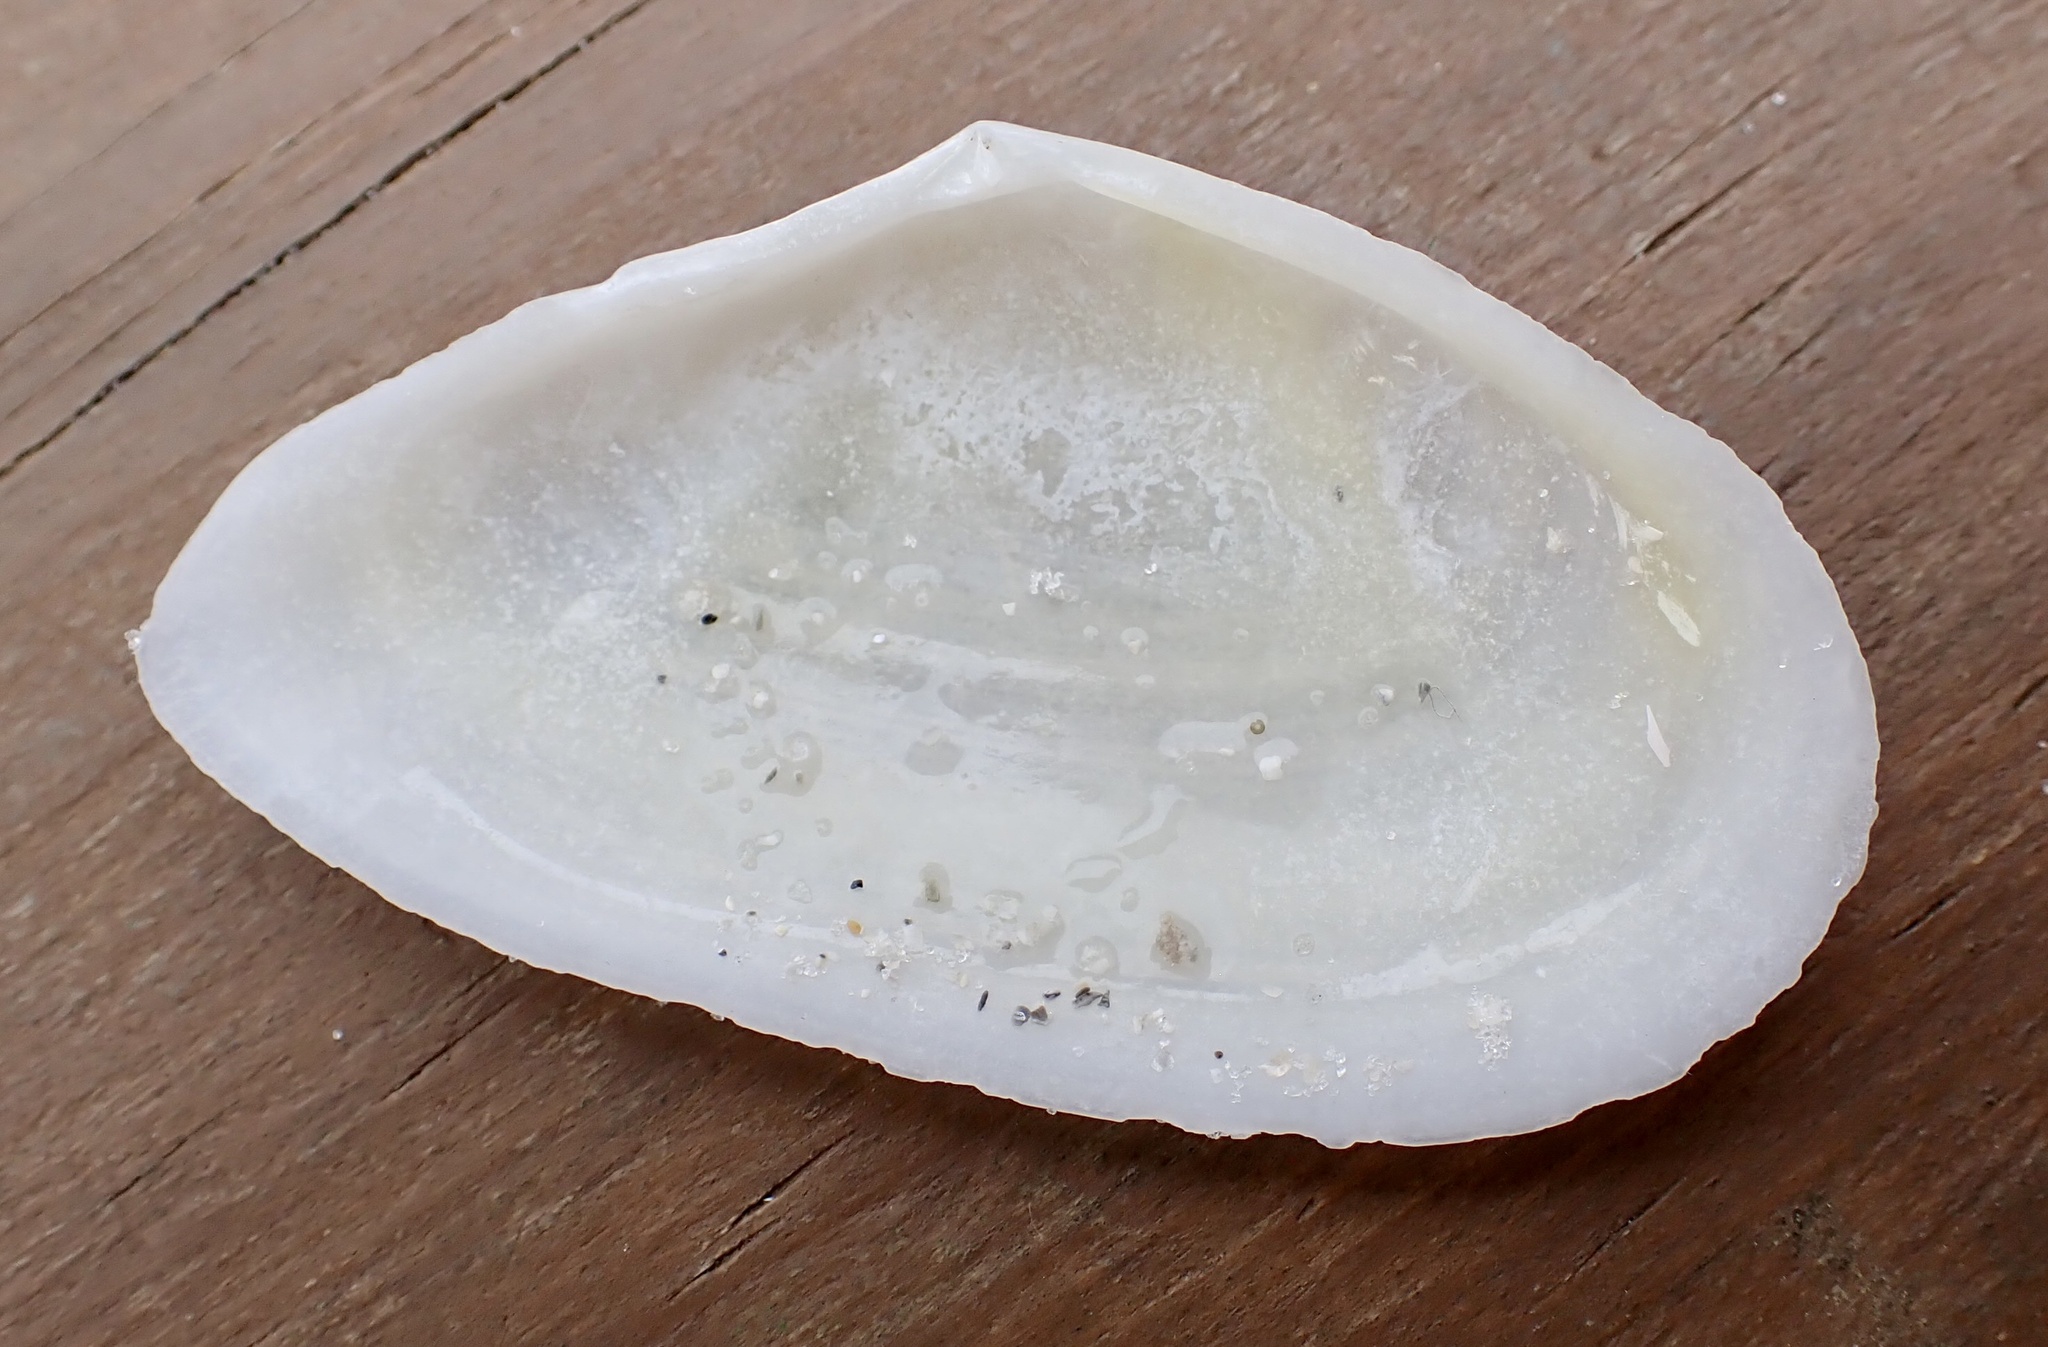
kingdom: Animalia
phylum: Mollusca
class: Bivalvia
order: Cardiida
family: Tellinidae
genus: Eurytellina
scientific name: Eurytellina alternata
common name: Alternate tellin
